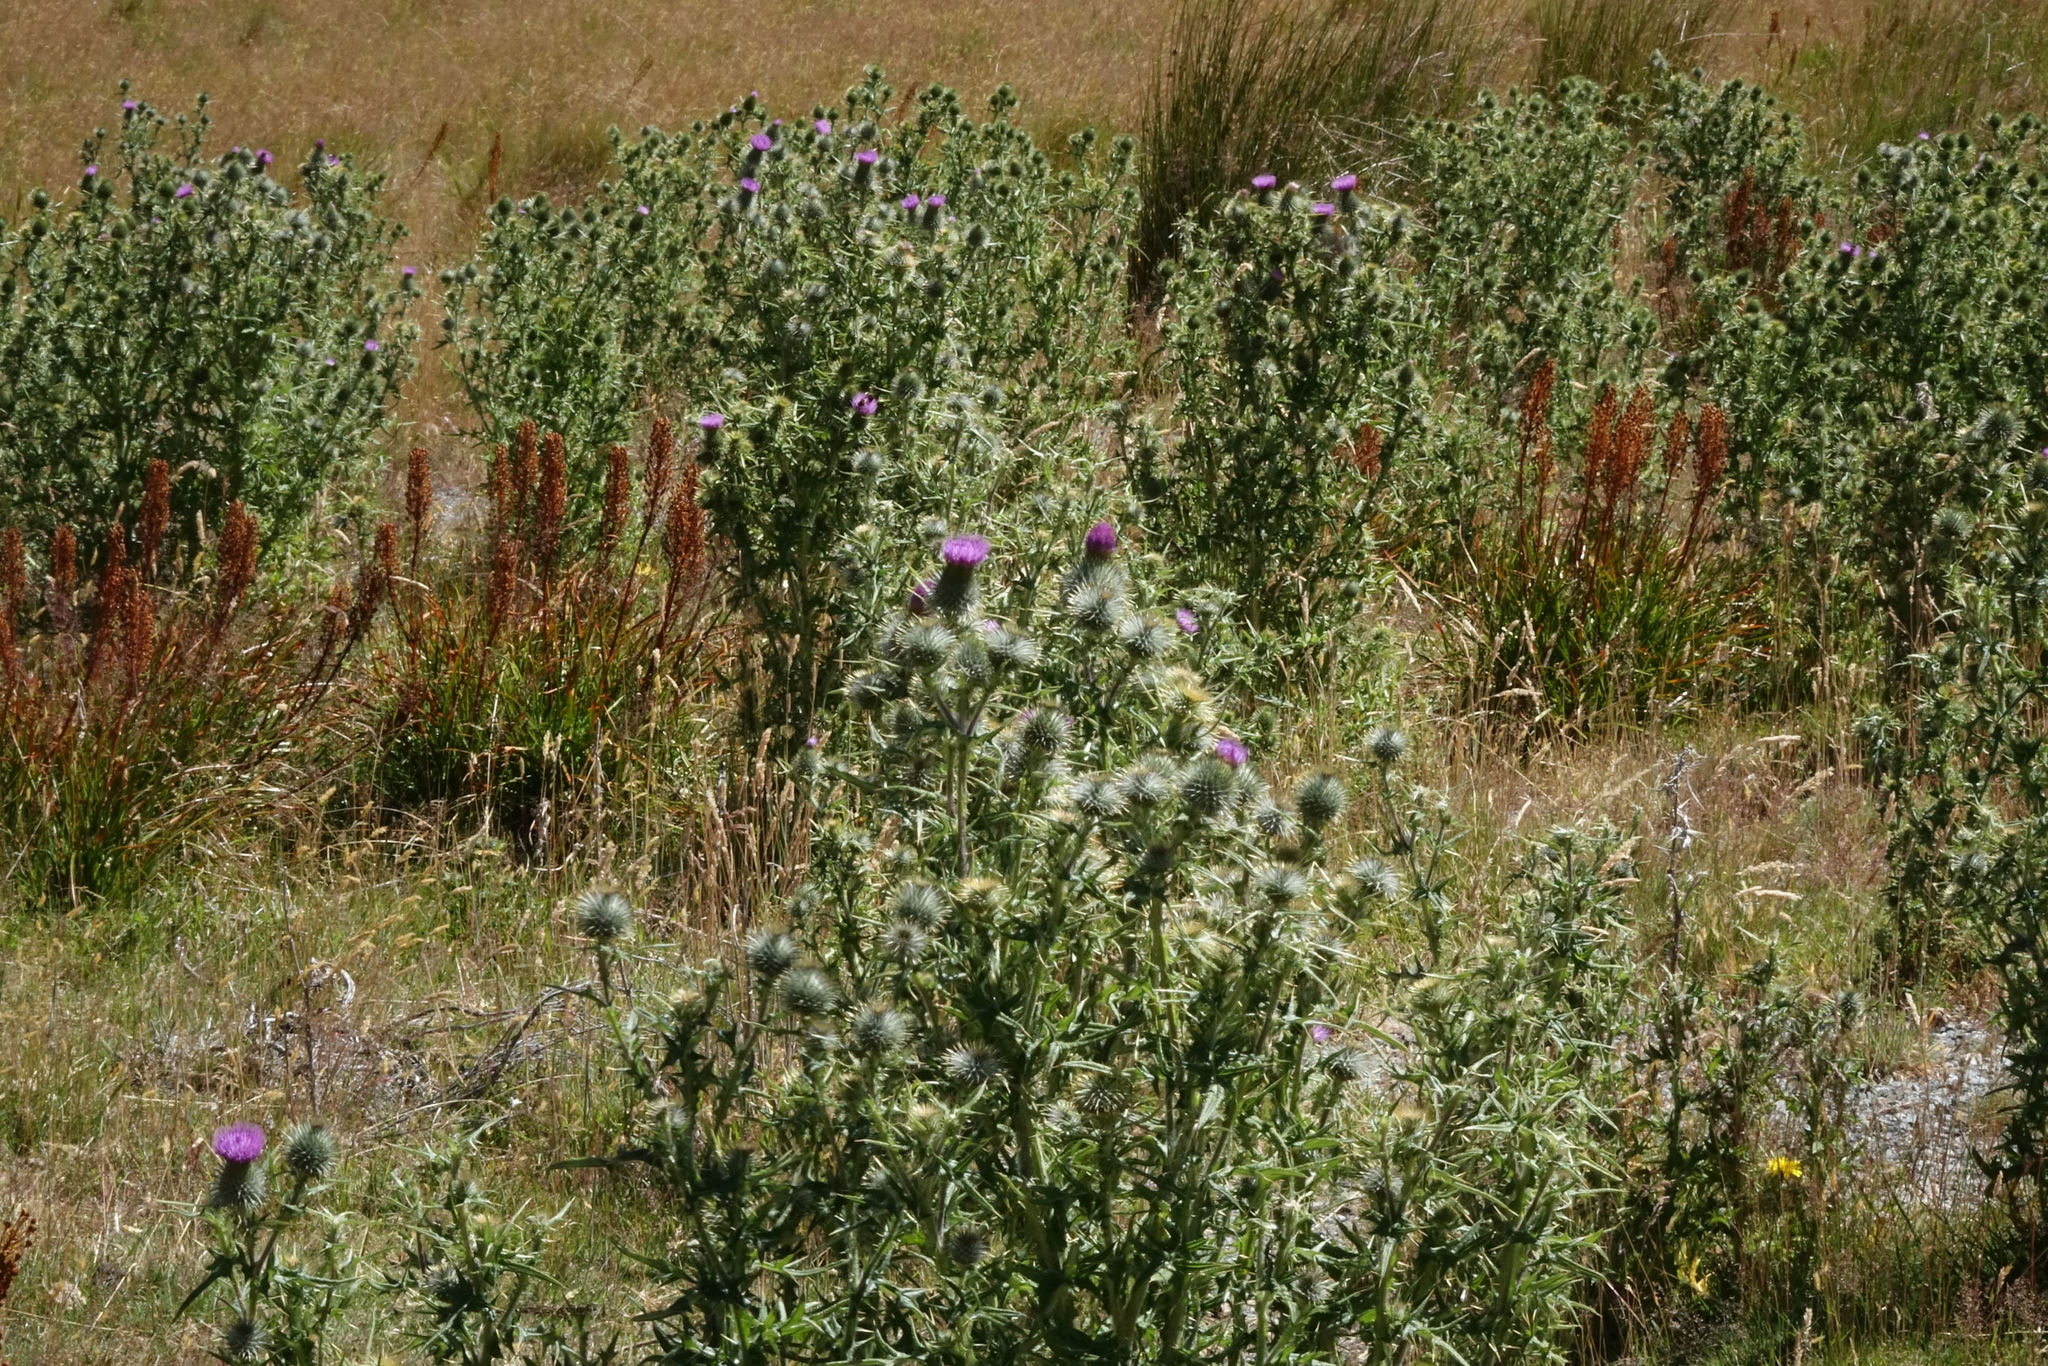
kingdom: Plantae
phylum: Tracheophyta
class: Magnoliopsida
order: Asterales
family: Asteraceae
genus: Cirsium
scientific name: Cirsium vulgare
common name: Bull thistle
